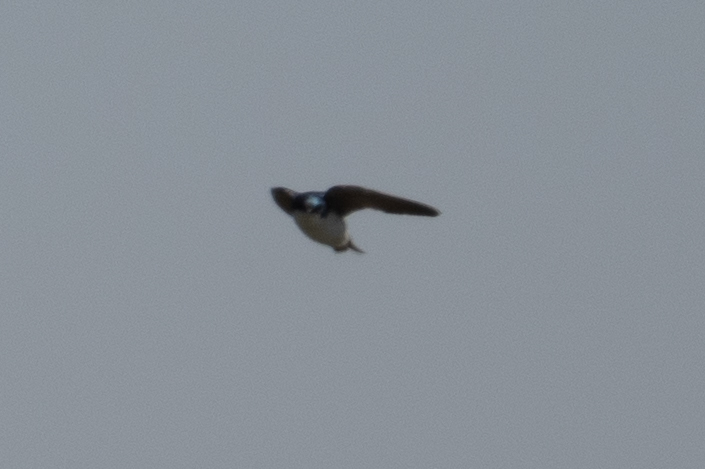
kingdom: Animalia
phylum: Chordata
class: Aves
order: Passeriformes
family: Hirundinidae
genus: Tachycineta
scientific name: Tachycineta bicolor
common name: Tree swallow
